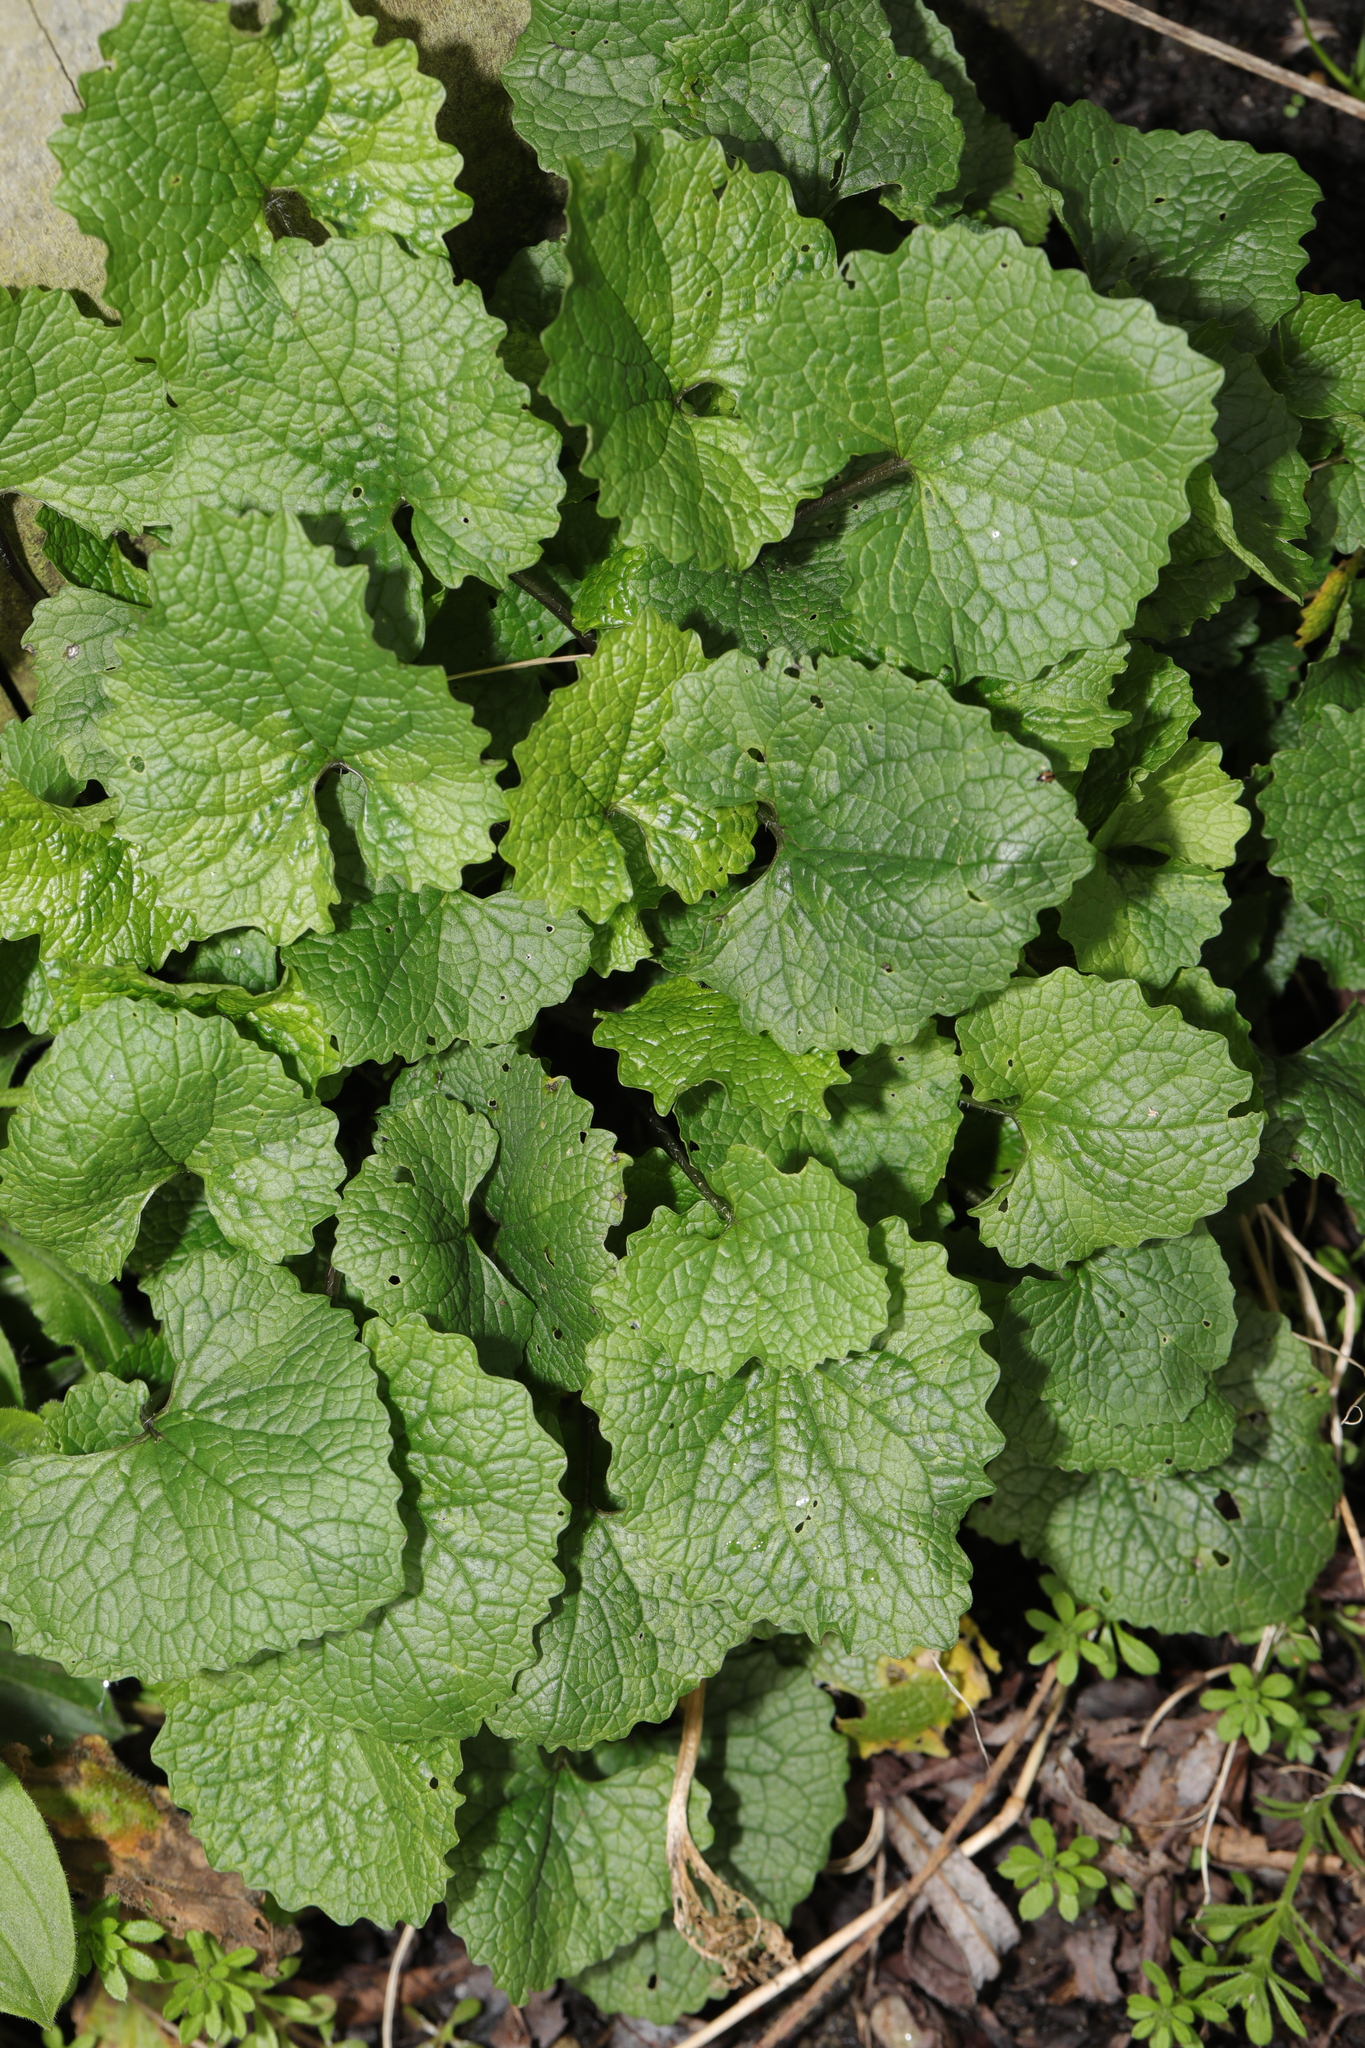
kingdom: Plantae
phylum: Tracheophyta
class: Magnoliopsida
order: Brassicales
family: Brassicaceae
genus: Alliaria
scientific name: Alliaria petiolata
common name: Garlic mustard
